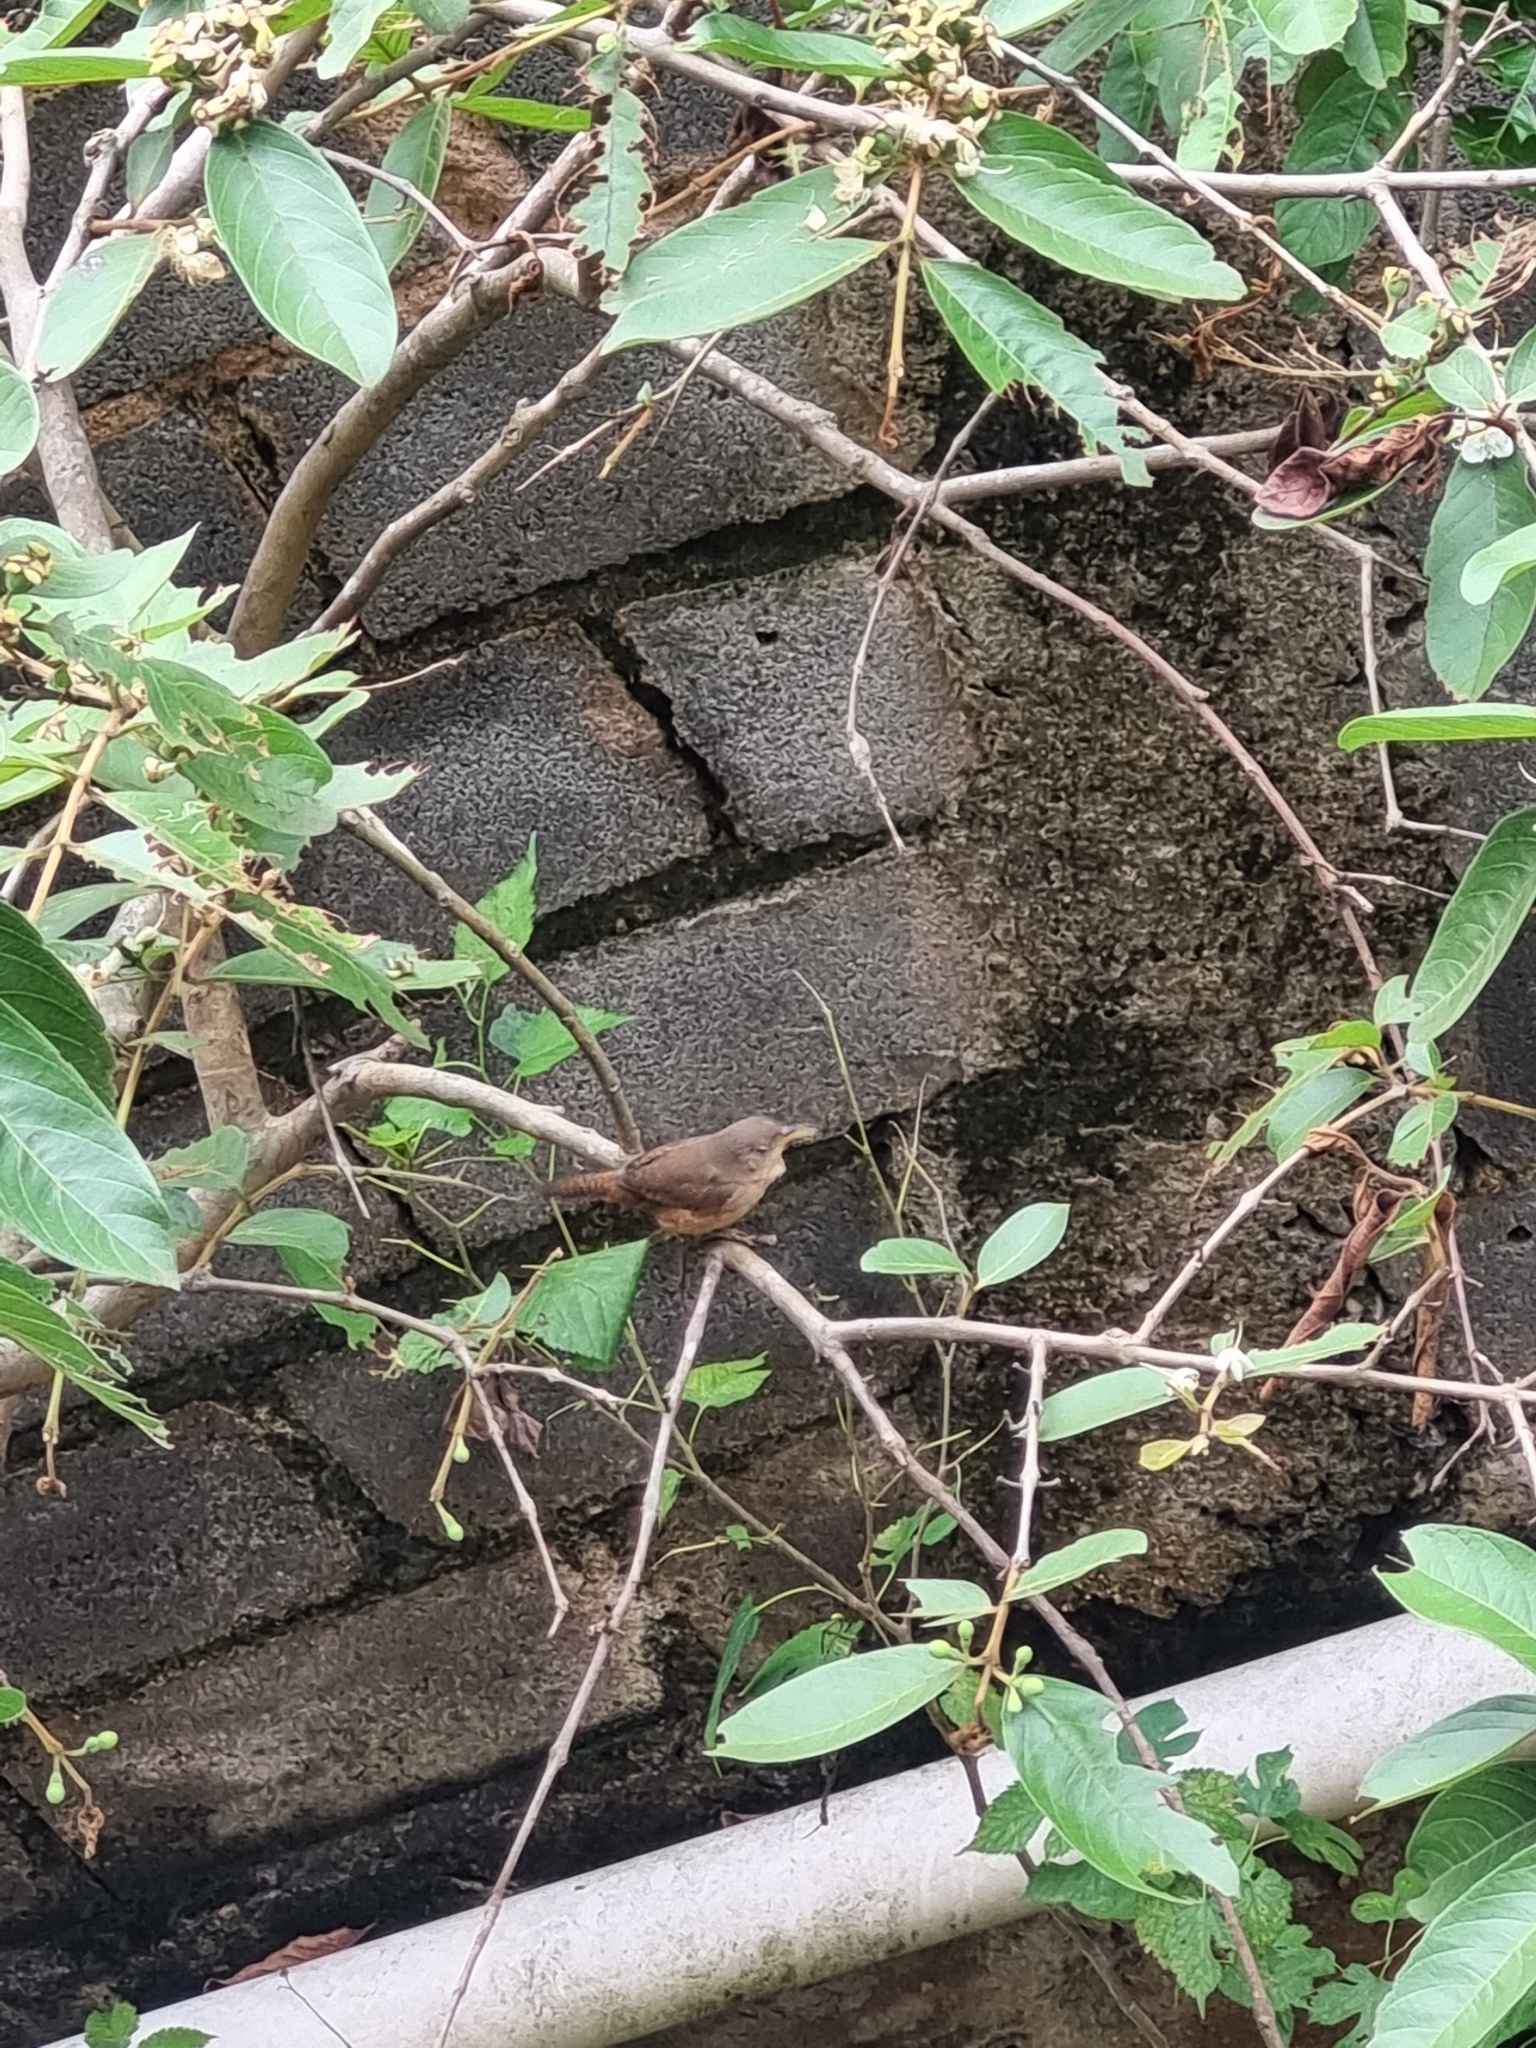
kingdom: Animalia
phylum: Chordata
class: Aves
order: Passeriformes
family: Troglodytidae
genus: Troglodytes
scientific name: Troglodytes aedon
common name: House wren
